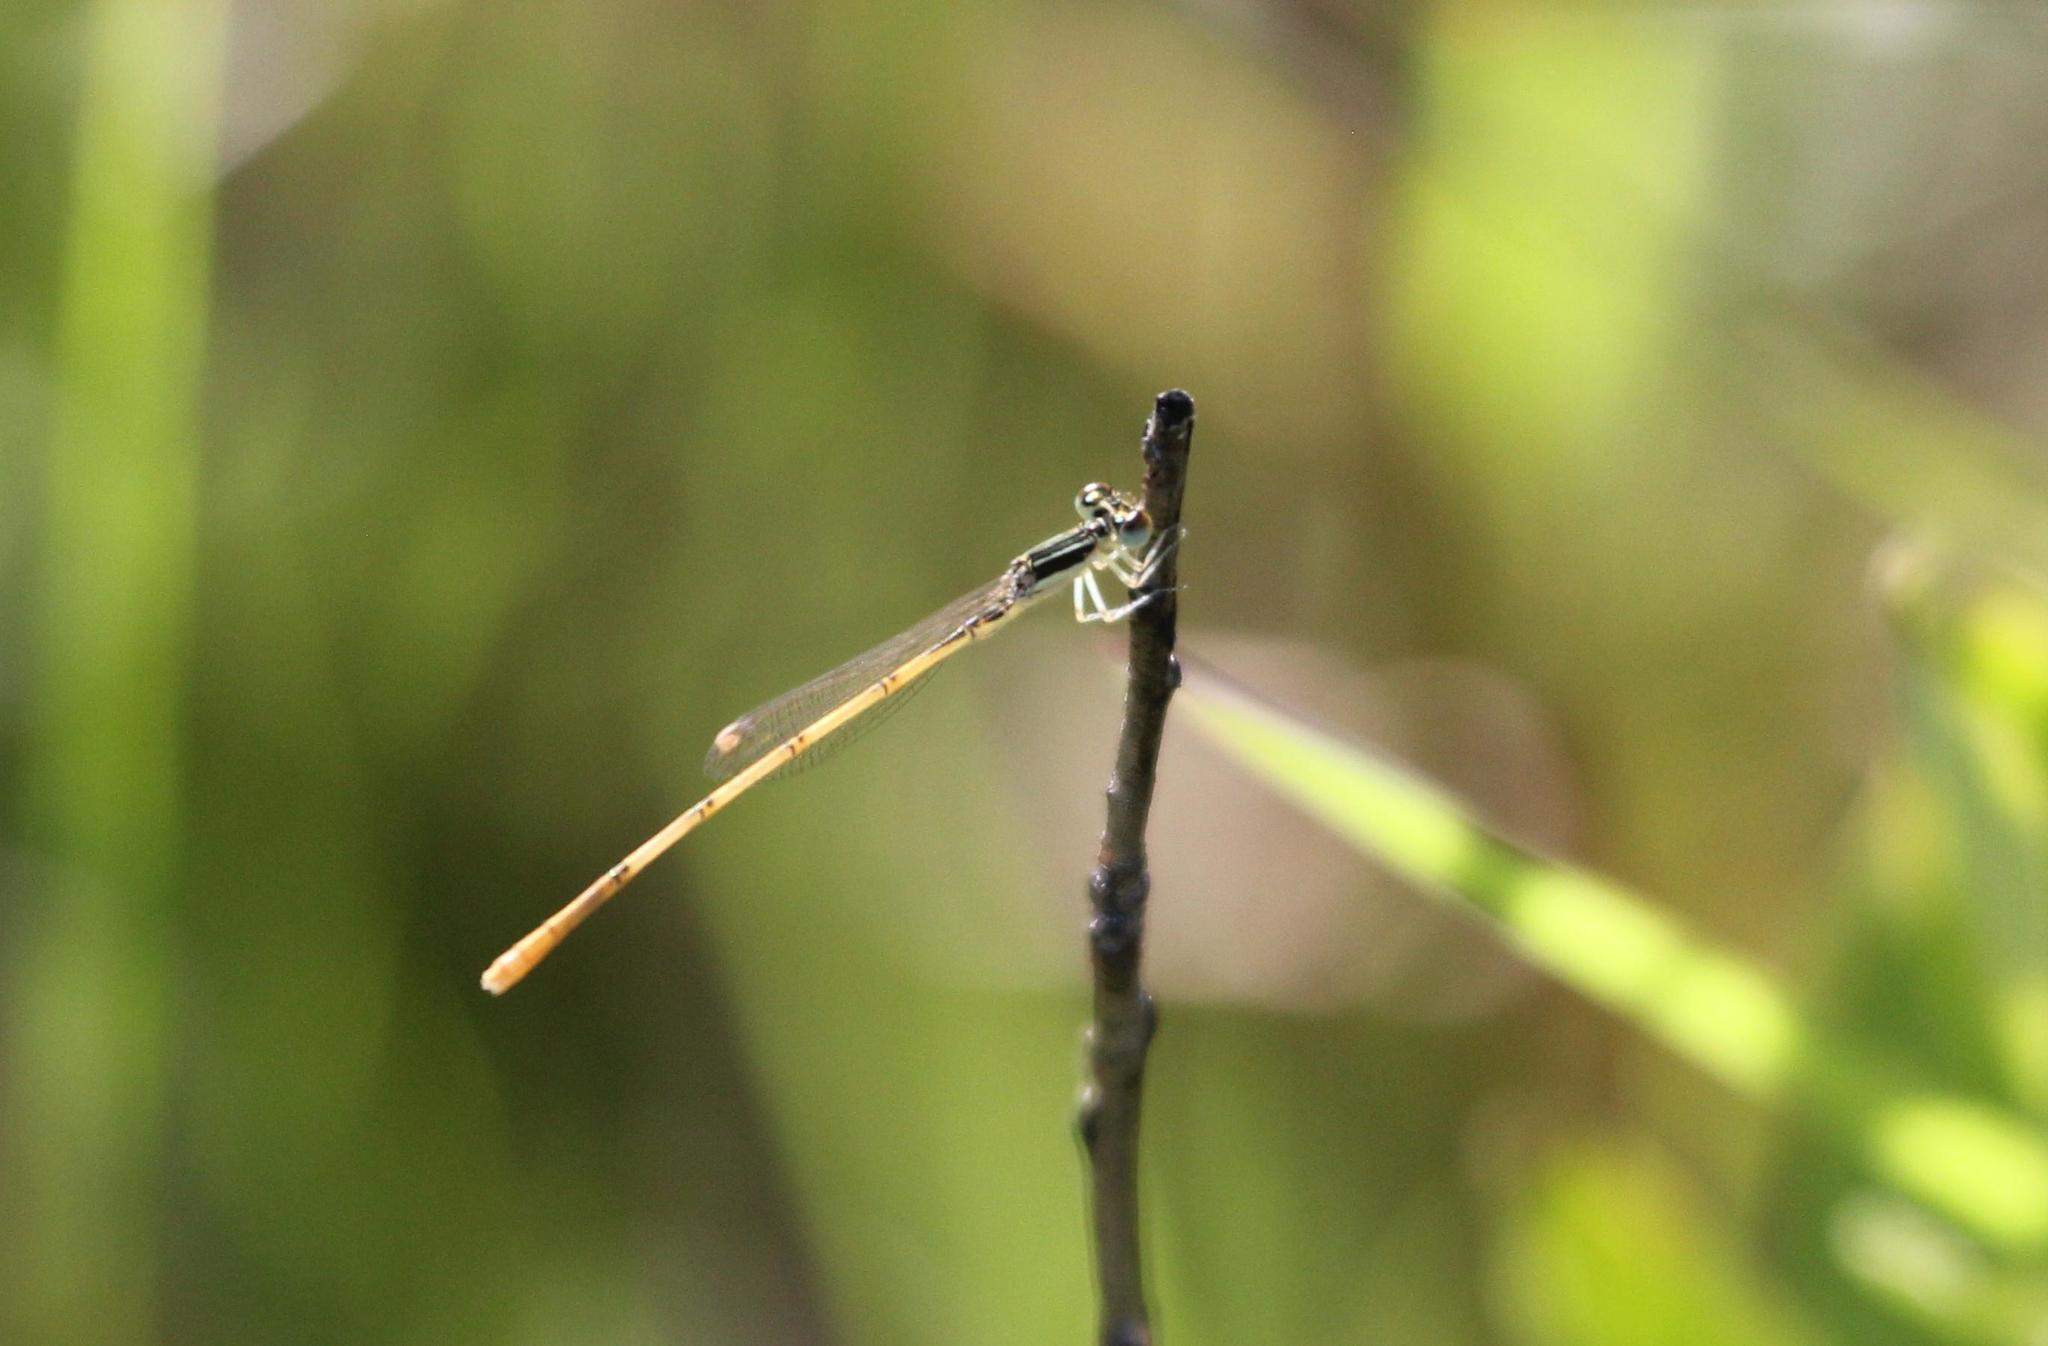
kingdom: Animalia
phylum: Arthropoda
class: Insecta
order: Odonata
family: Coenagrionidae
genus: Ischnura
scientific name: Ischnura hastata
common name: Citrine forktail
